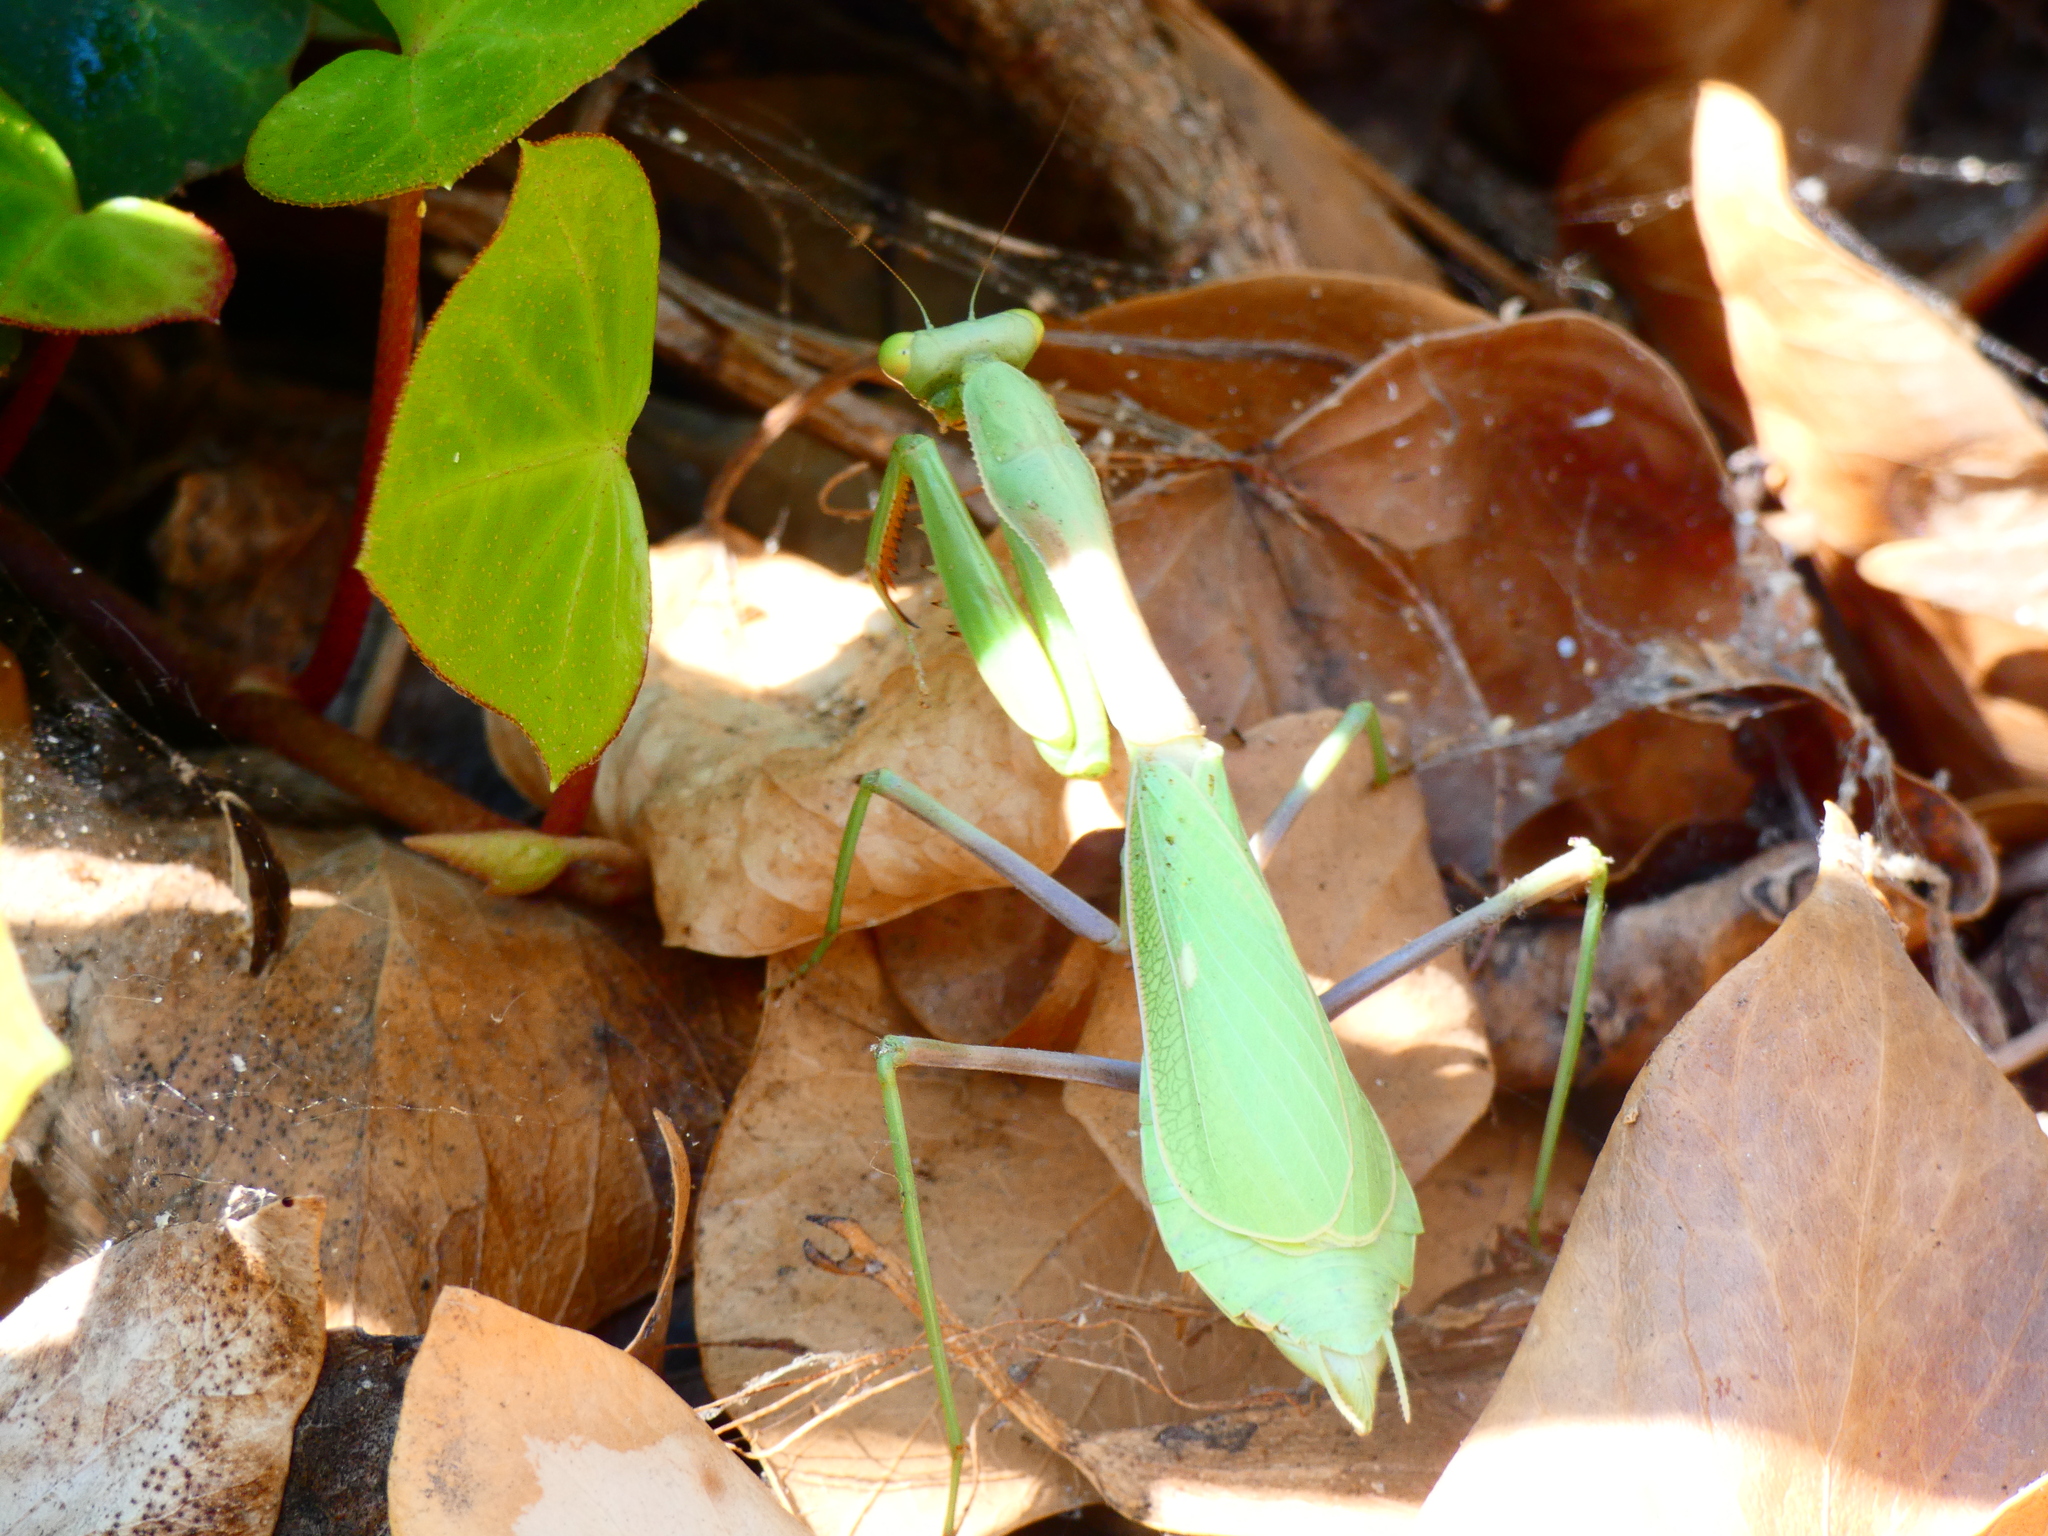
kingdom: Animalia
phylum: Arthropoda
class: Insecta
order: Mantodea
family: Mantidae
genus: Stagmomantis
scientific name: Stagmomantis limbata
